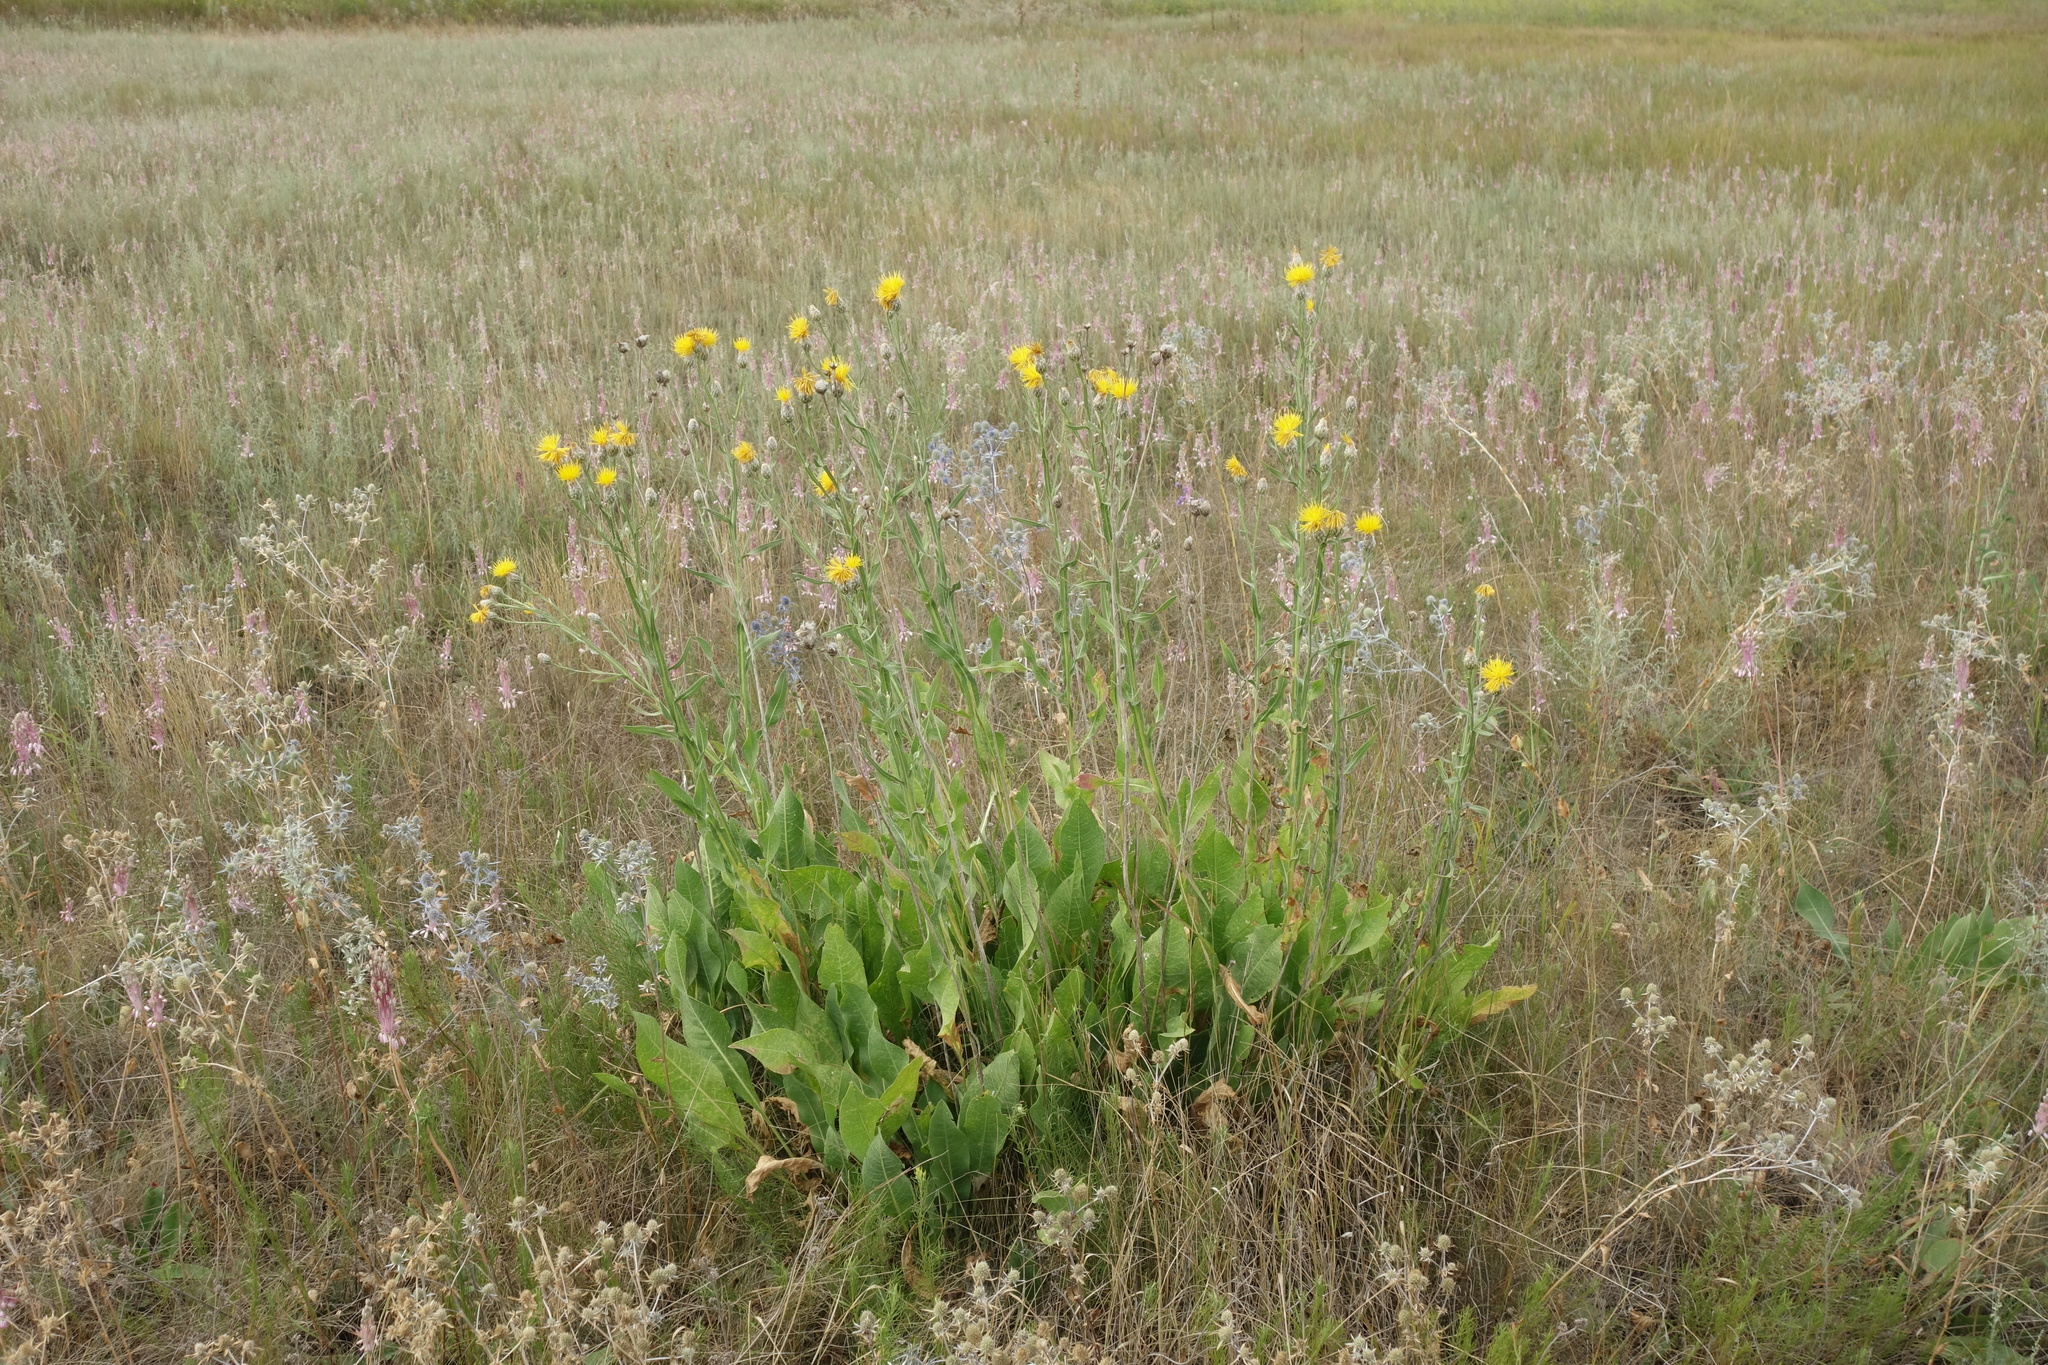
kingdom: Plantae
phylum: Tracheophyta
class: Magnoliopsida
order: Asterales
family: Asteraceae
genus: Centaurea
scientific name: Centaurea glastifolia
